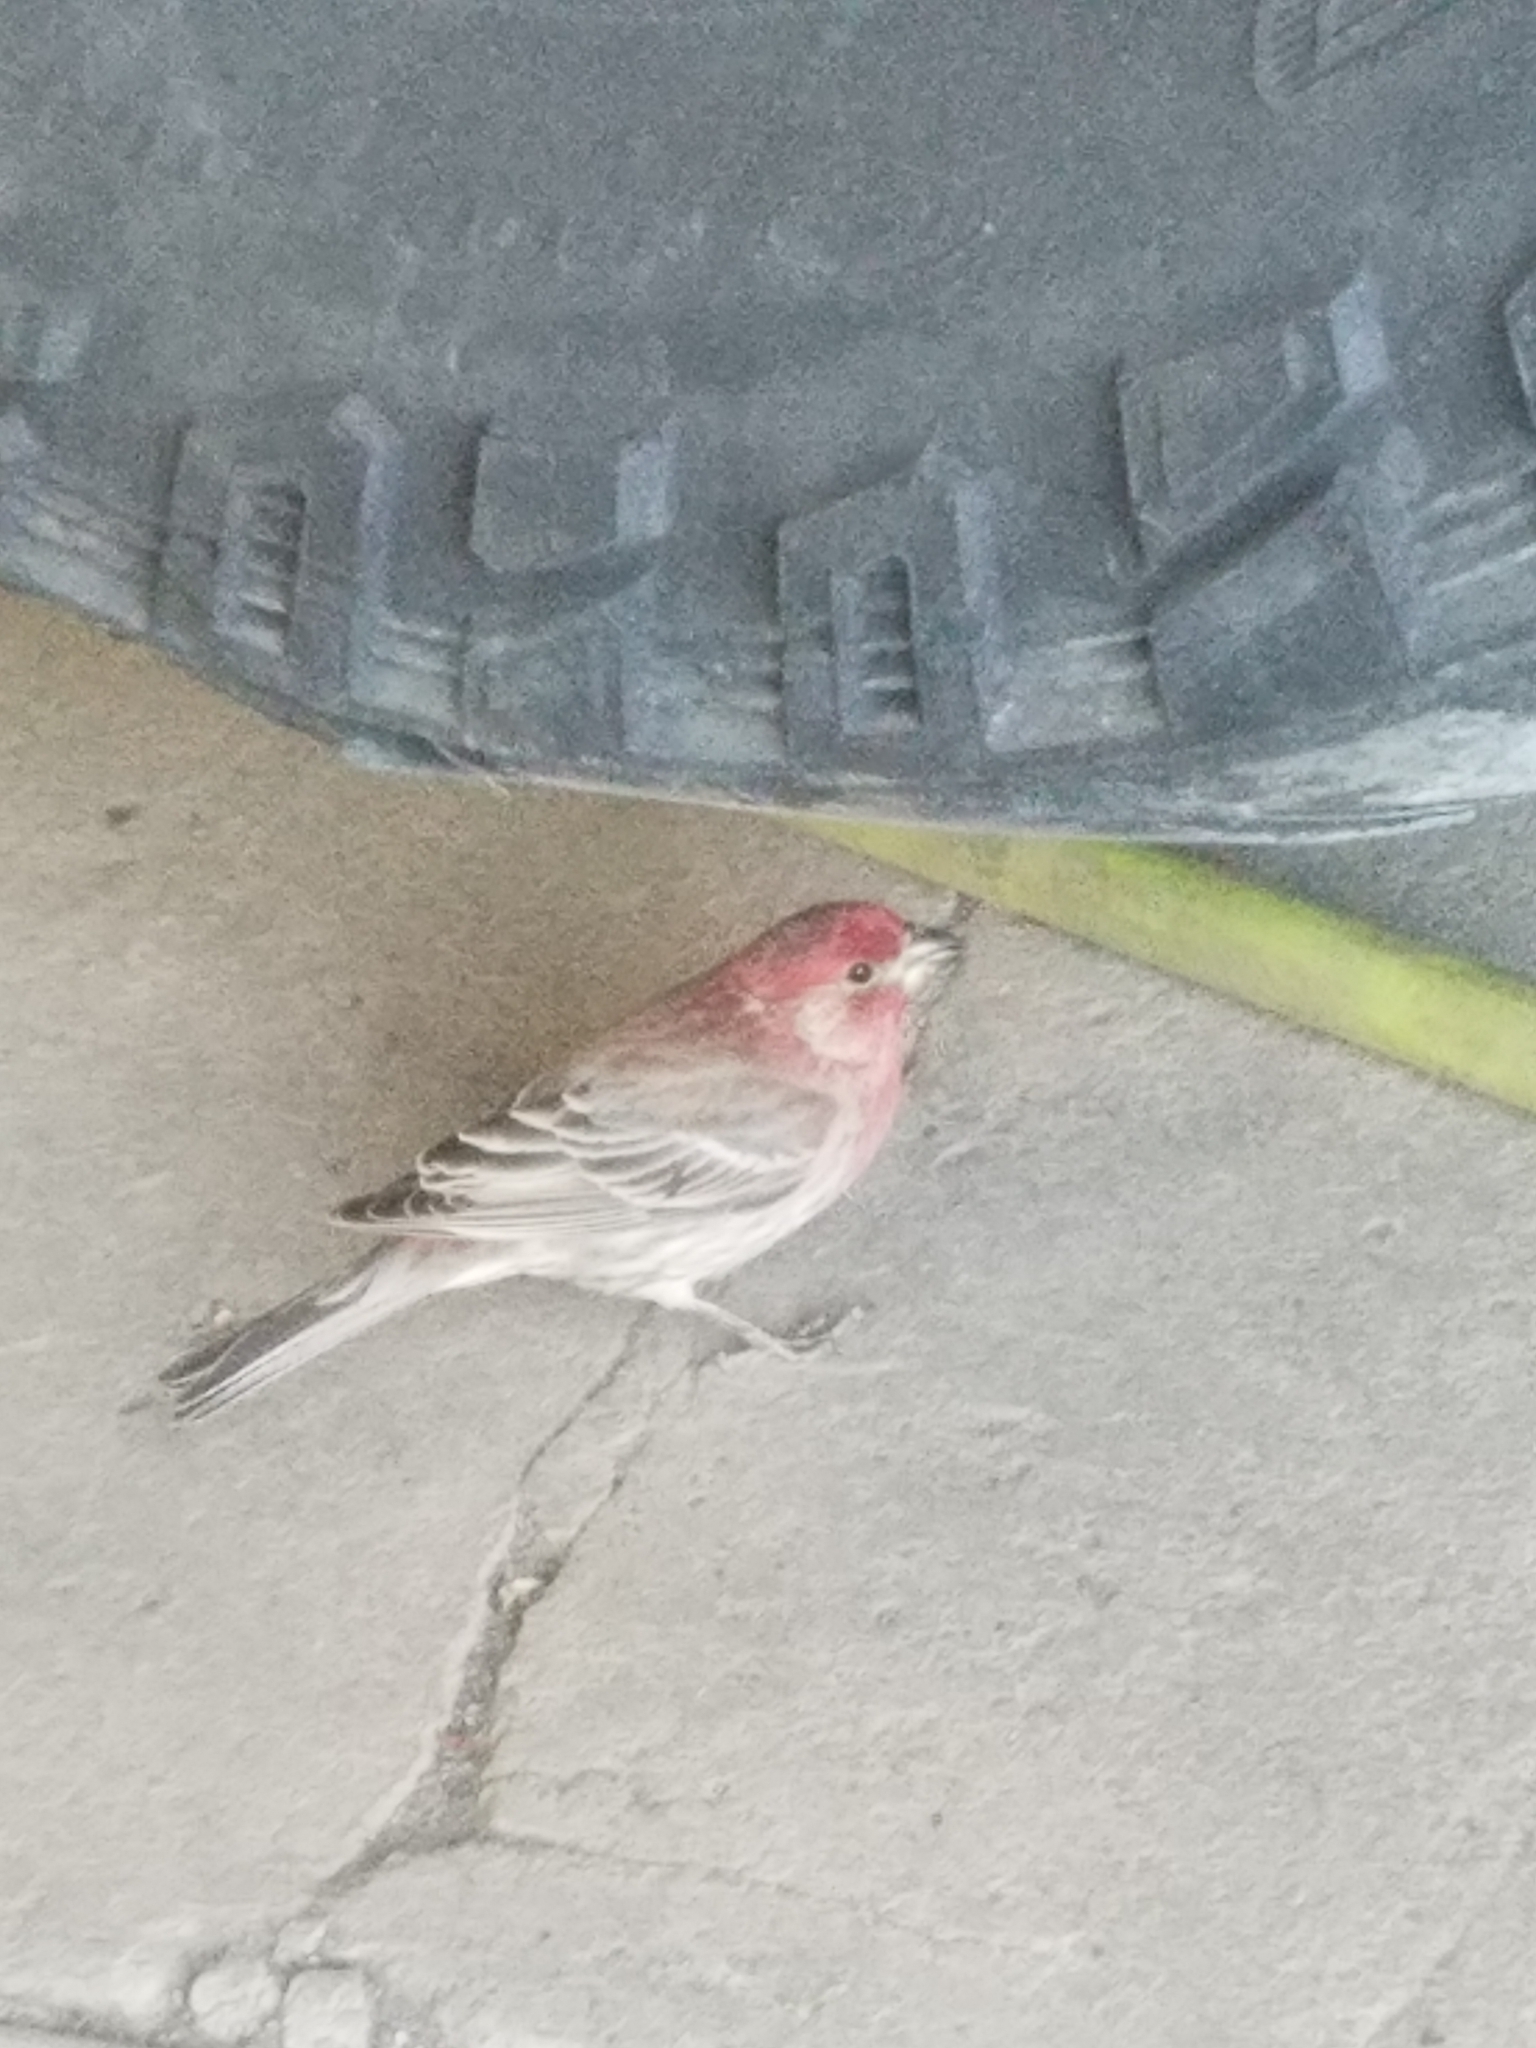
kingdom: Animalia
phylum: Chordata
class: Aves
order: Passeriformes
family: Fringillidae
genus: Haemorhous
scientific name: Haemorhous mexicanus
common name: House finch
